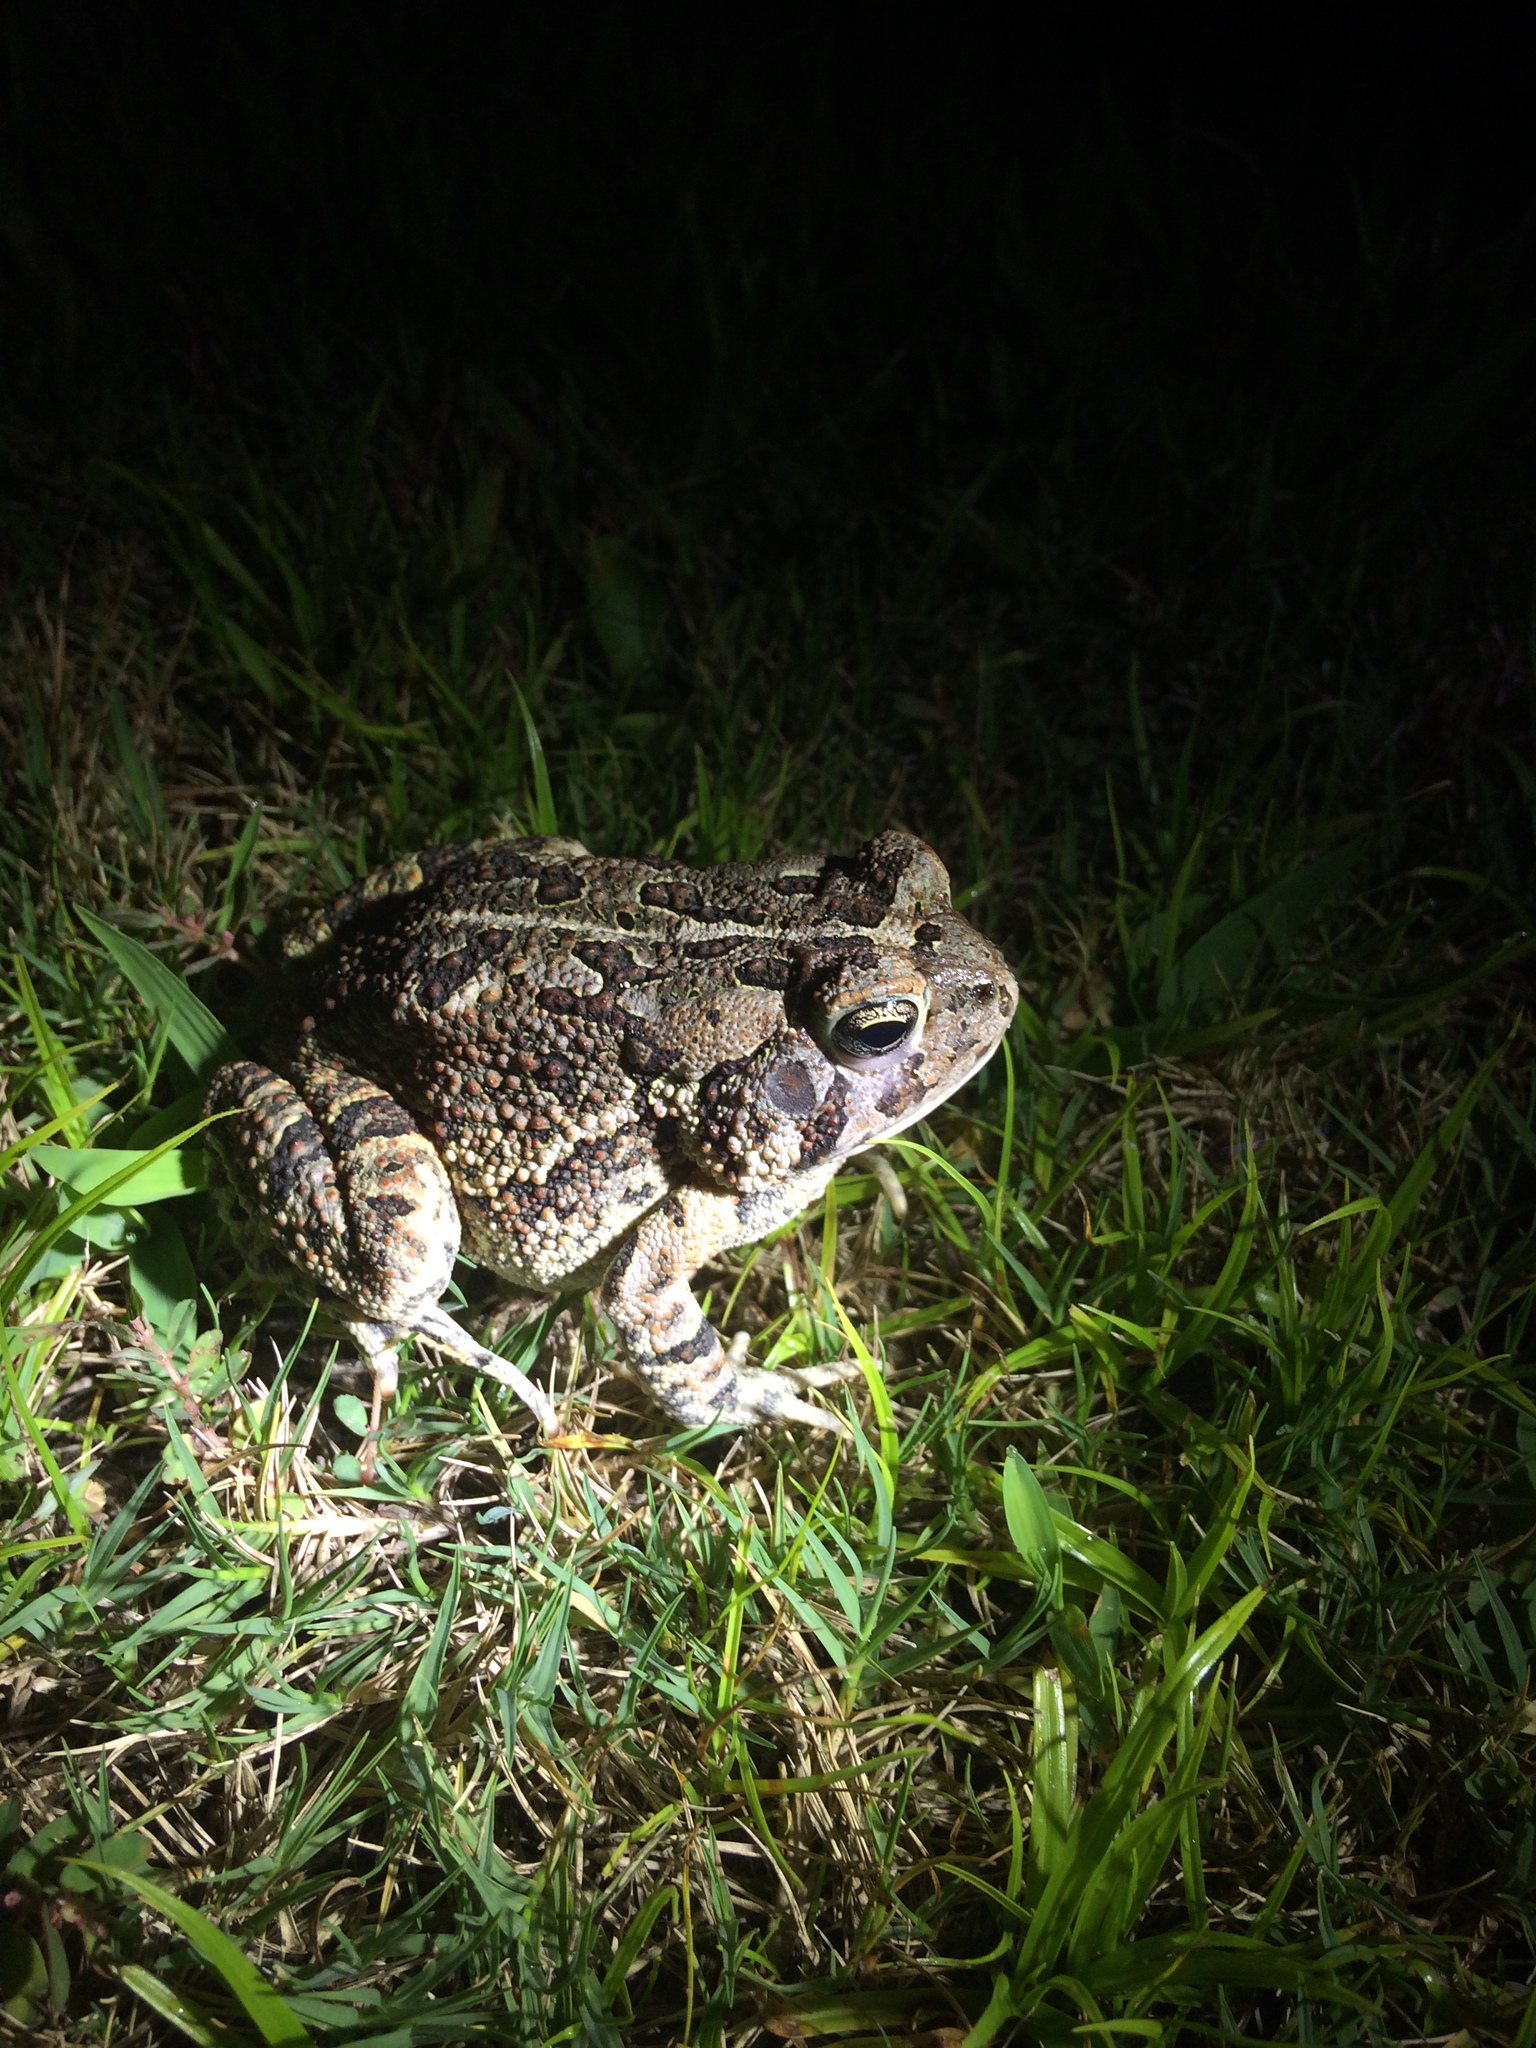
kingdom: Animalia
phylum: Chordata
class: Amphibia
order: Anura
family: Bufonidae
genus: Anaxyrus
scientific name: Anaxyrus fowleri
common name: Fowler's toad
